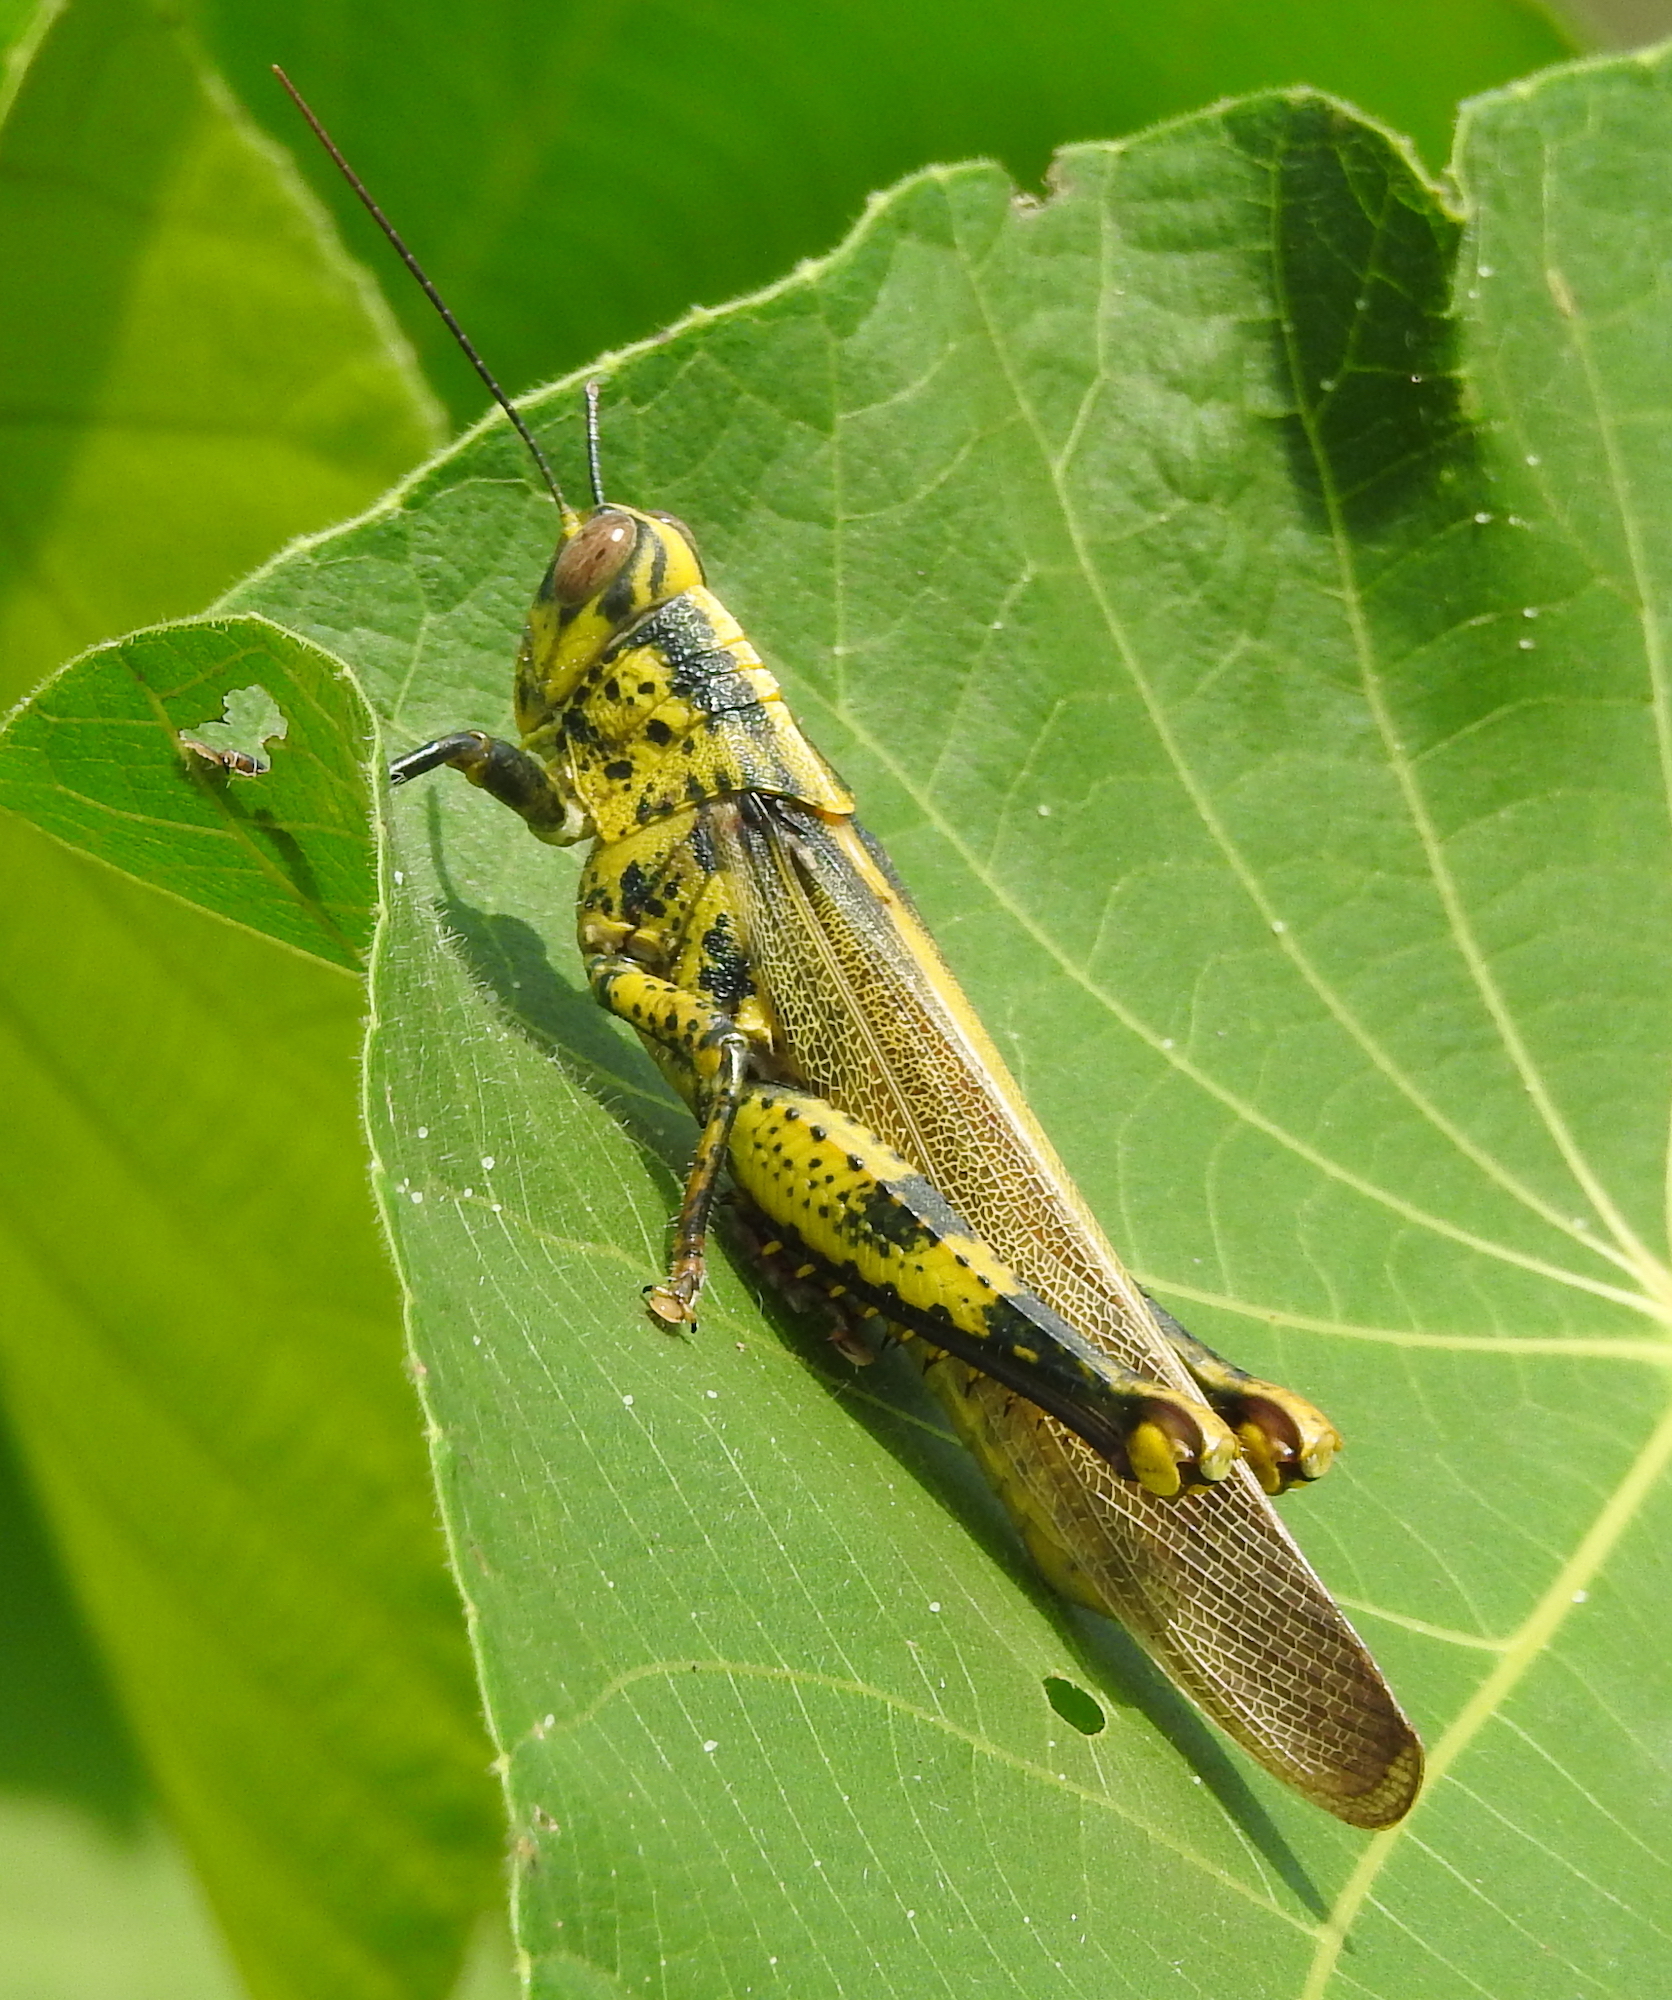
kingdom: Animalia
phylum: Arthropoda
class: Insecta
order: Orthoptera
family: Acrididae
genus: Valanga
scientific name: Valanga nigricornis
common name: Javanese bird grasshopper
